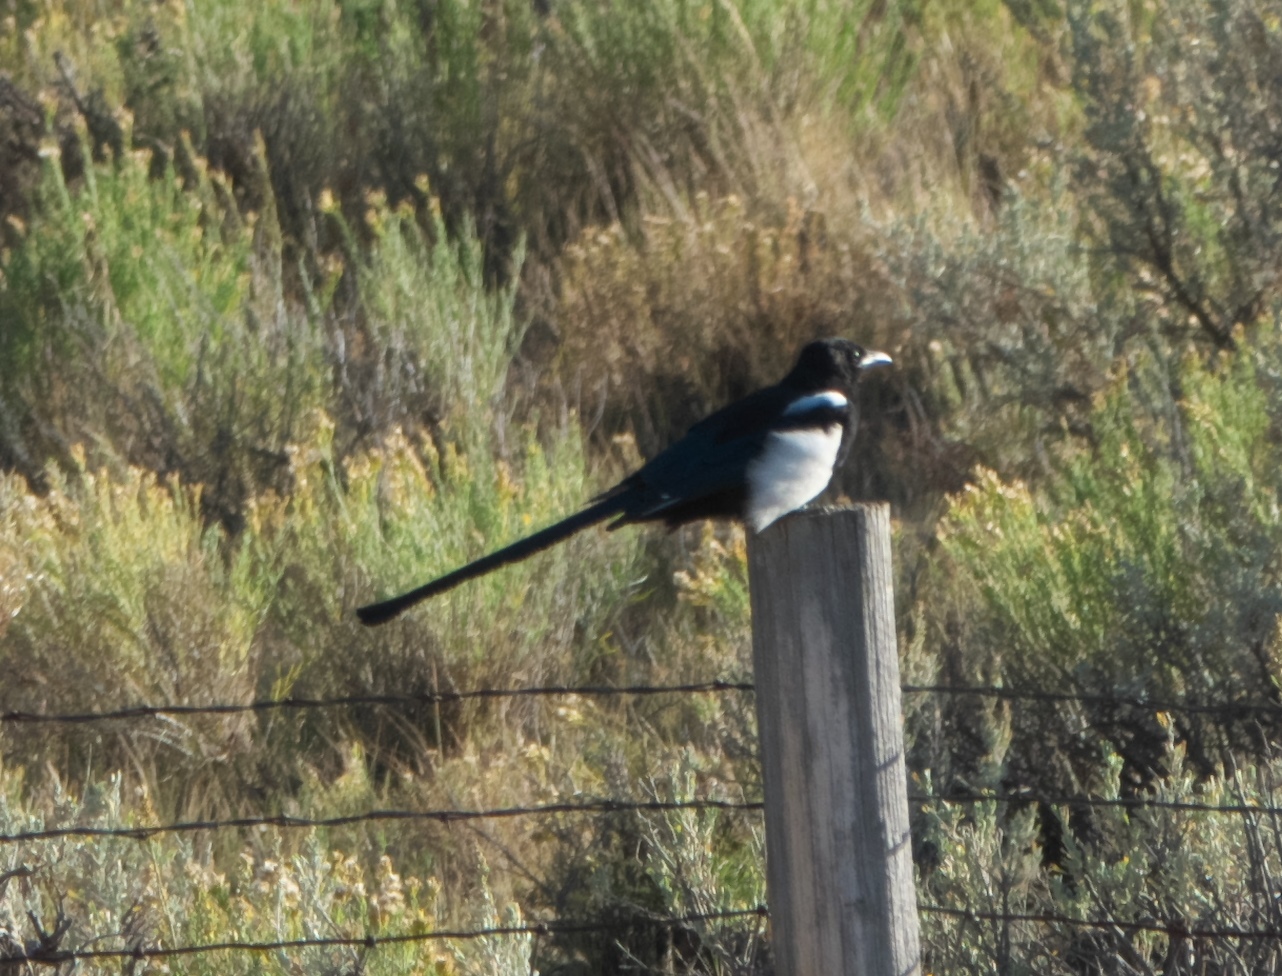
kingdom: Animalia
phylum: Chordata
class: Aves
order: Passeriformes
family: Corvidae
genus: Pica
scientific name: Pica hudsonia
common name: Black-billed magpie
